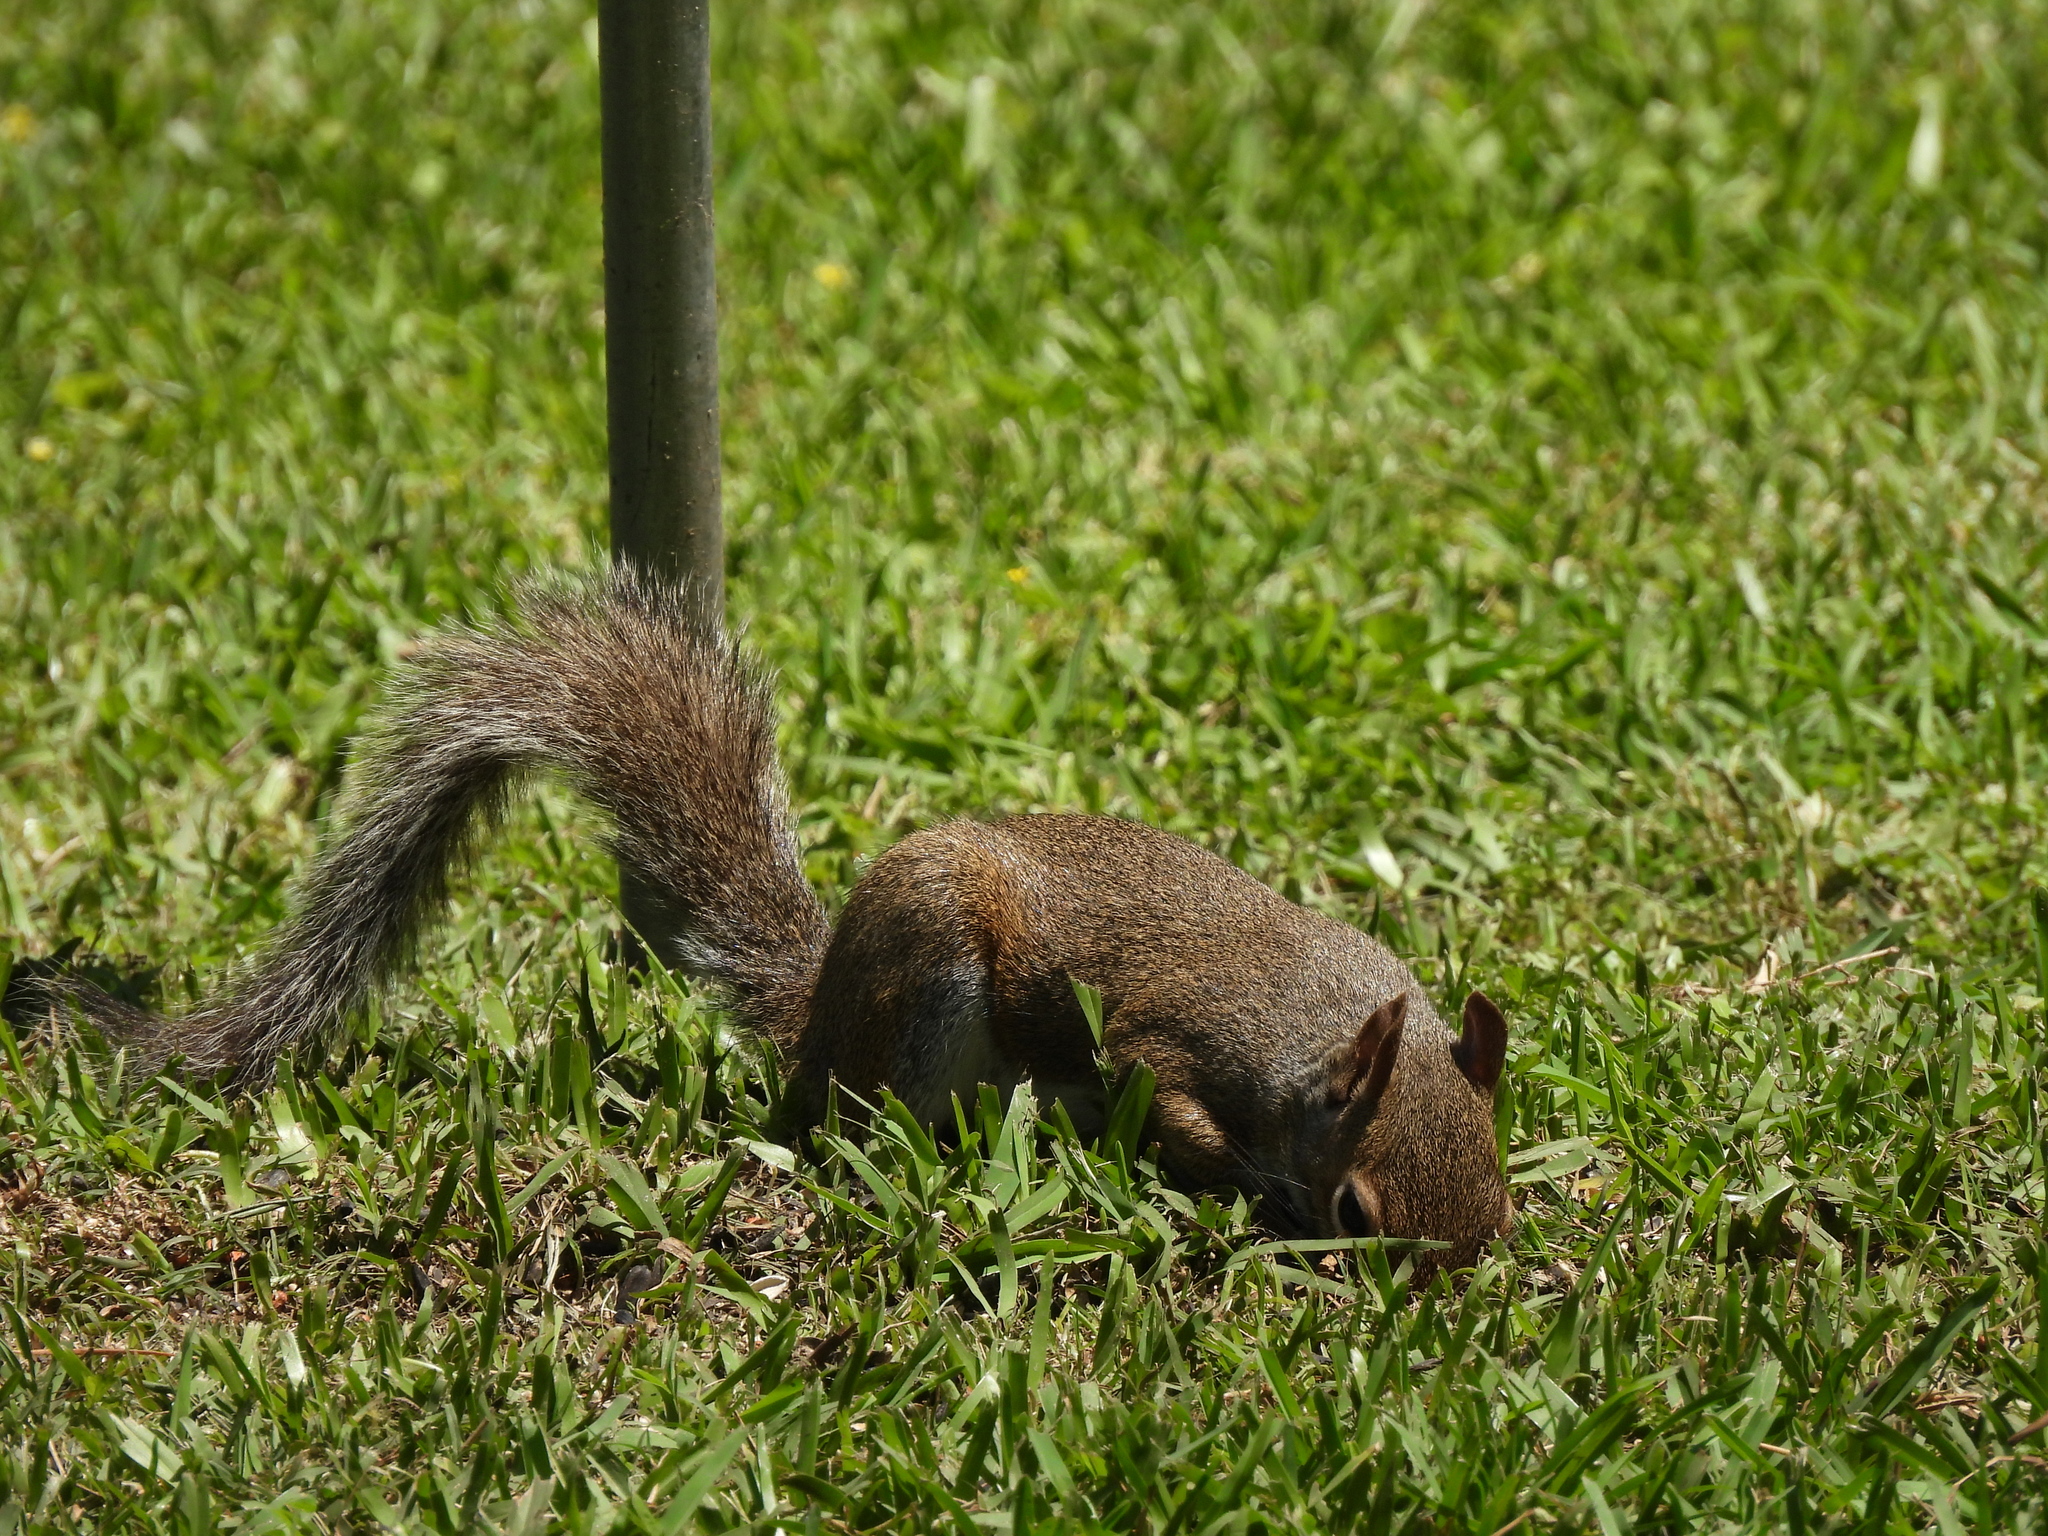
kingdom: Animalia
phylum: Chordata
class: Mammalia
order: Rodentia
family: Sciuridae
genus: Sciurus
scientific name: Sciurus carolinensis
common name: Eastern gray squirrel
